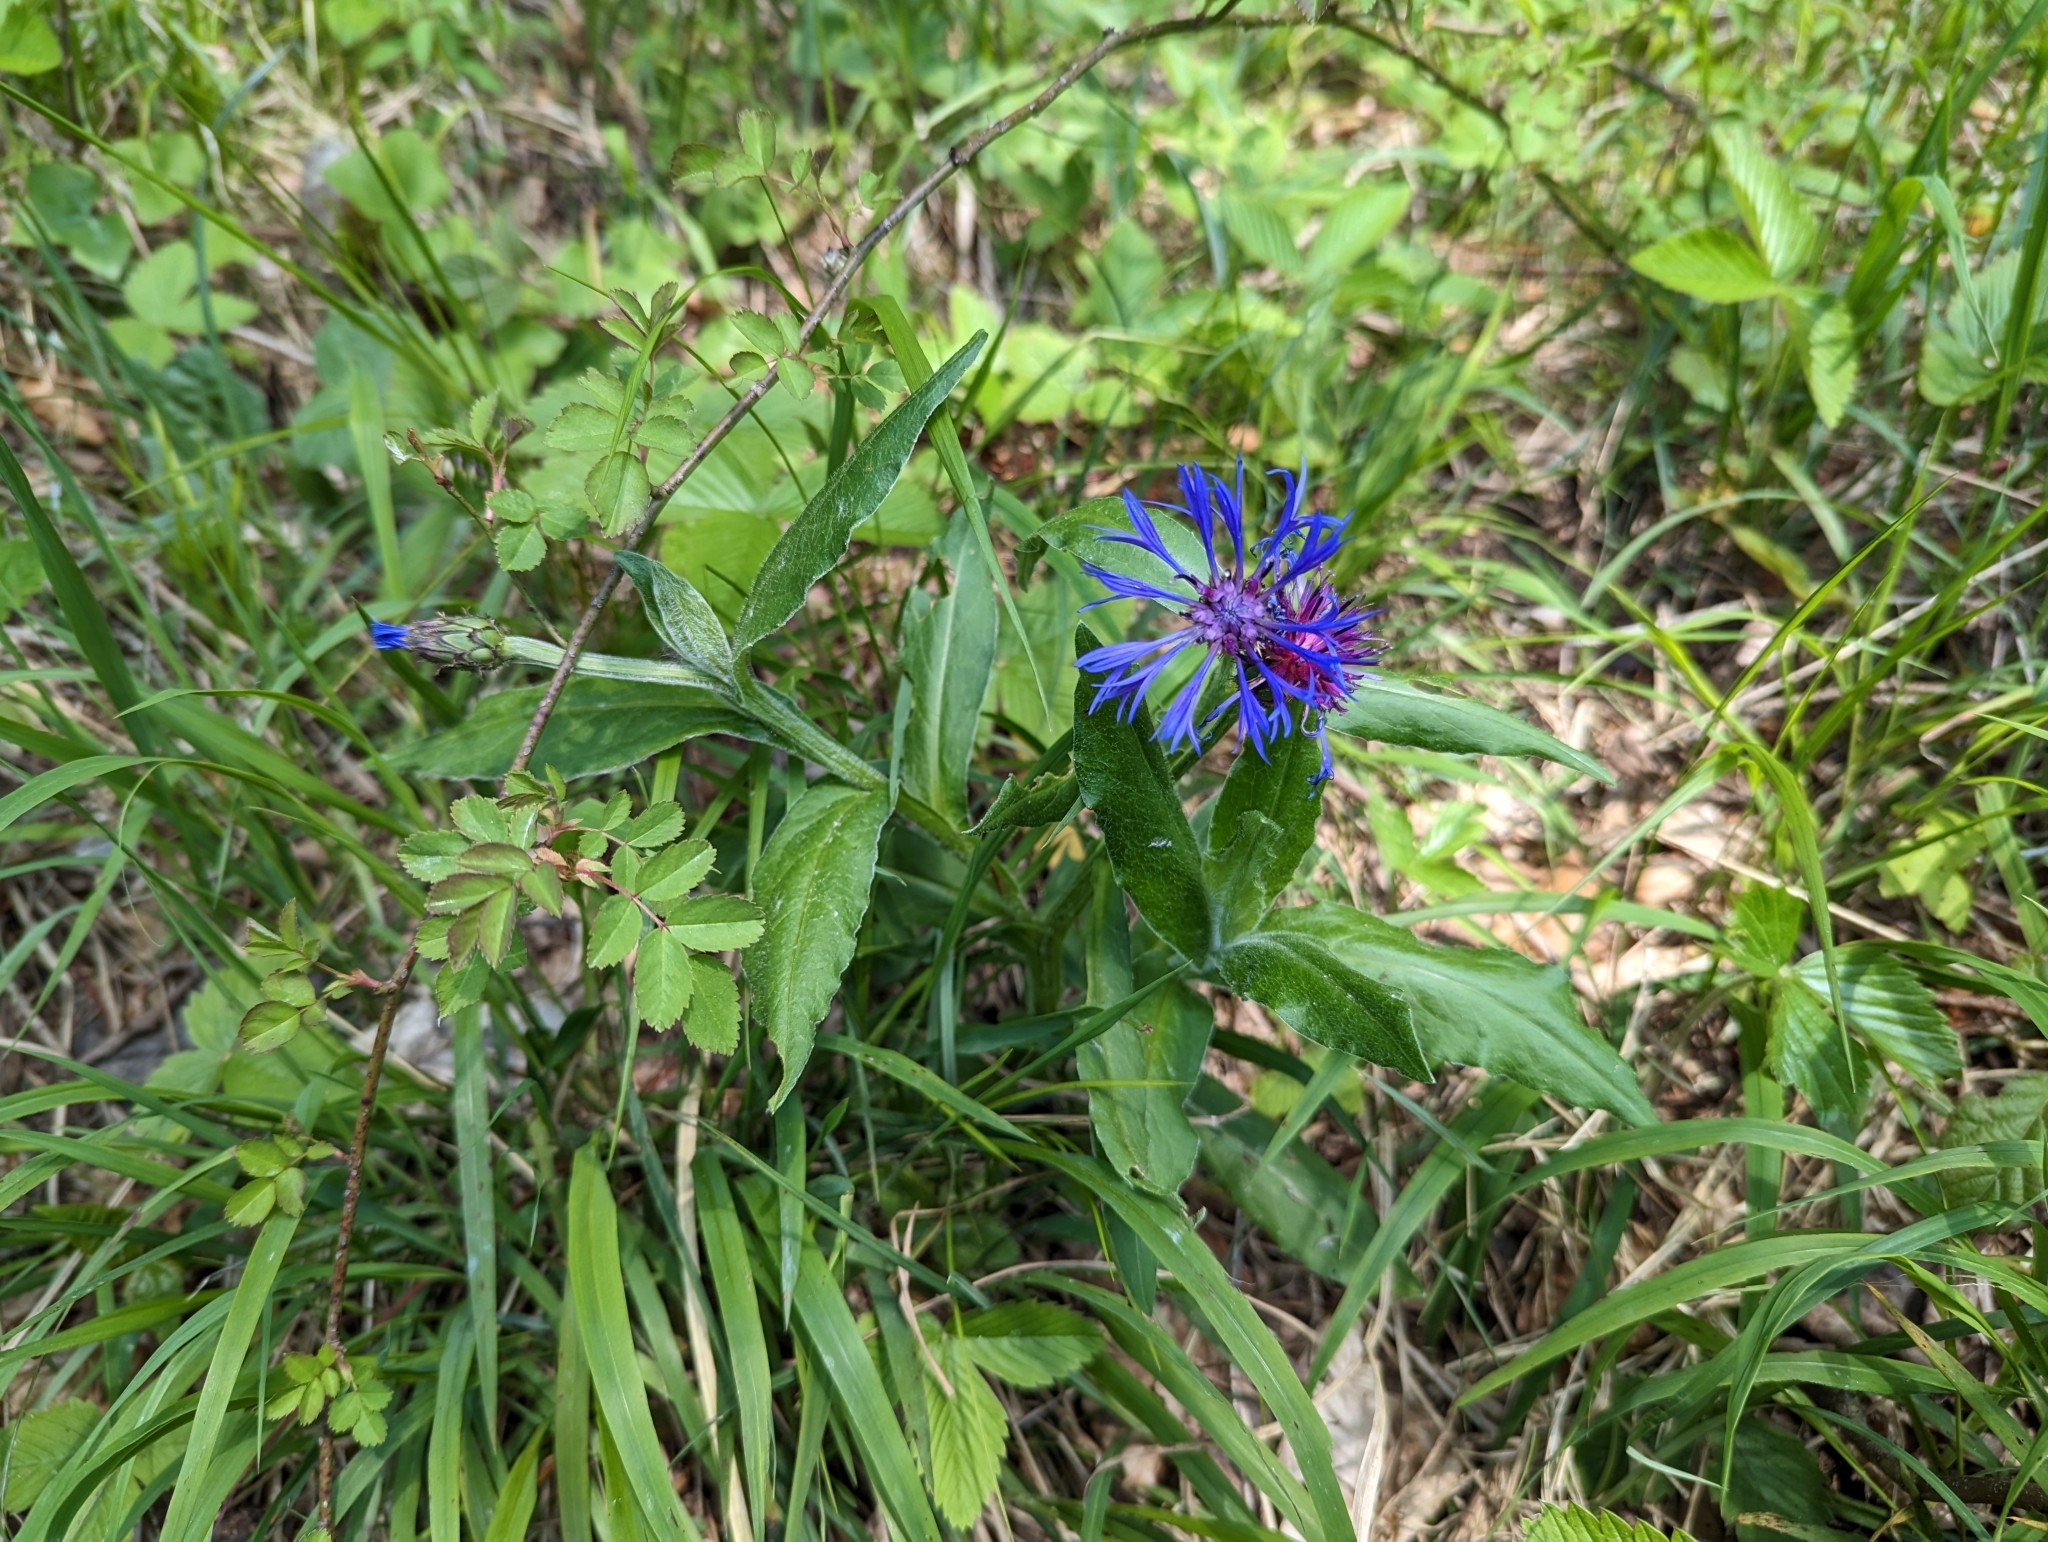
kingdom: Plantae
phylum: Tracheophyta
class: Magnoliopsida
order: Asterales
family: Asteraceae
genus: Centaurea
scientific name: Centaurea montana
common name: Perennial cornflower
